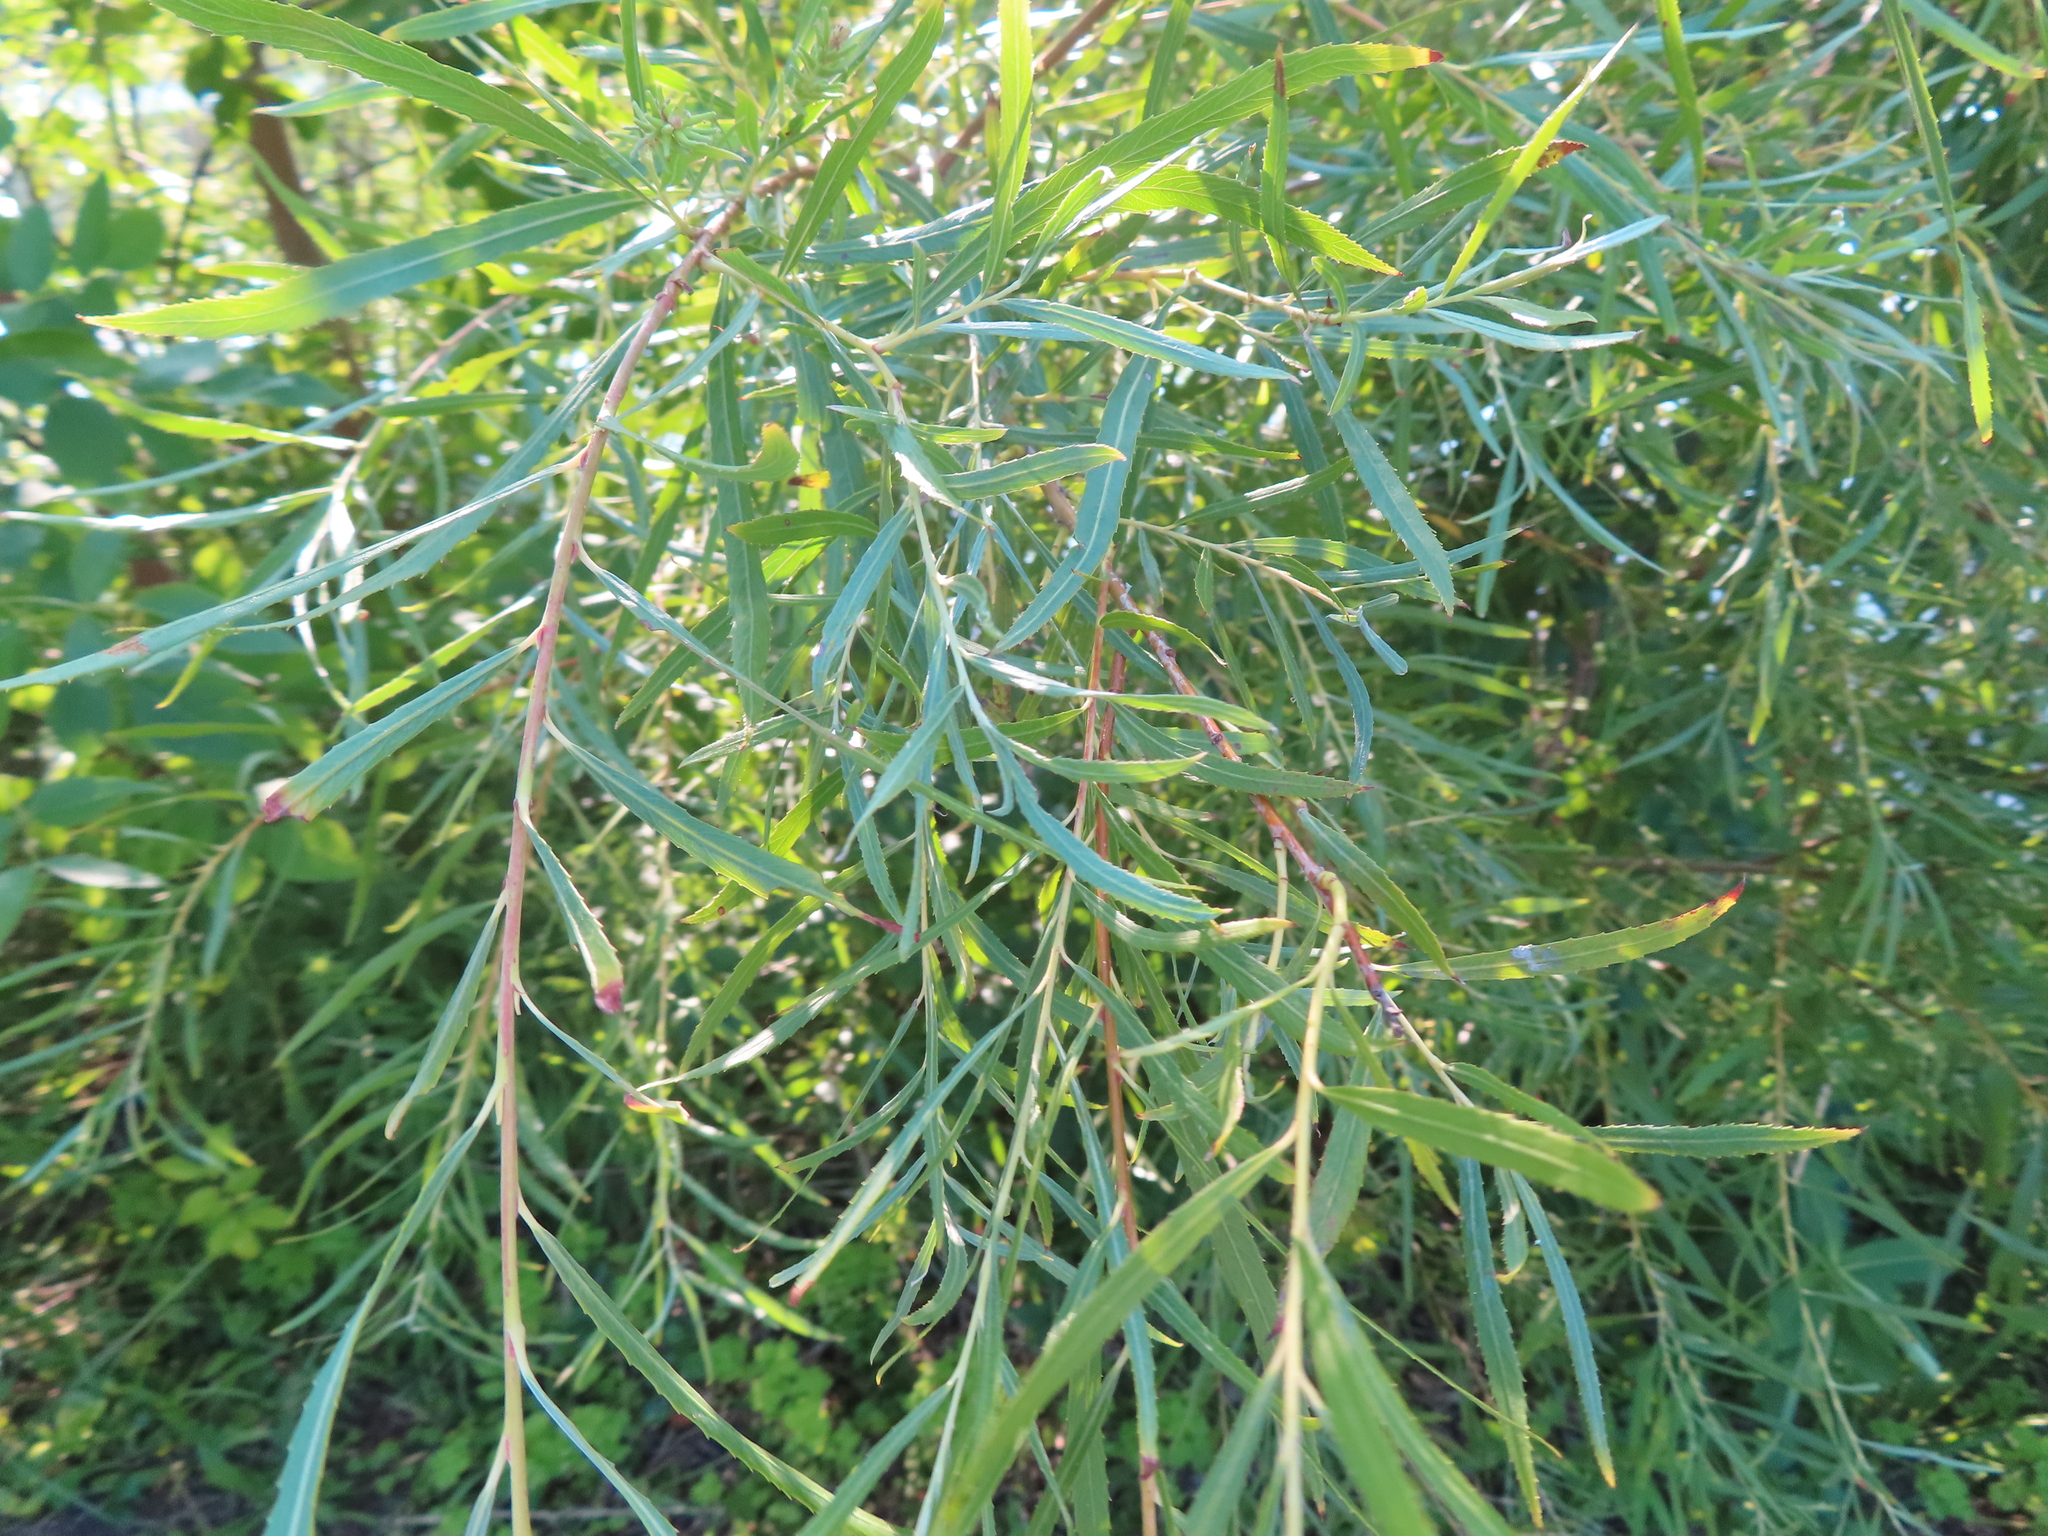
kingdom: Plantae
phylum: Tracheophyta
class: Magnoliopsida
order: Malpighiales
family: Salicaceae
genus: Salix
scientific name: Salix interior
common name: Sandbar willow
